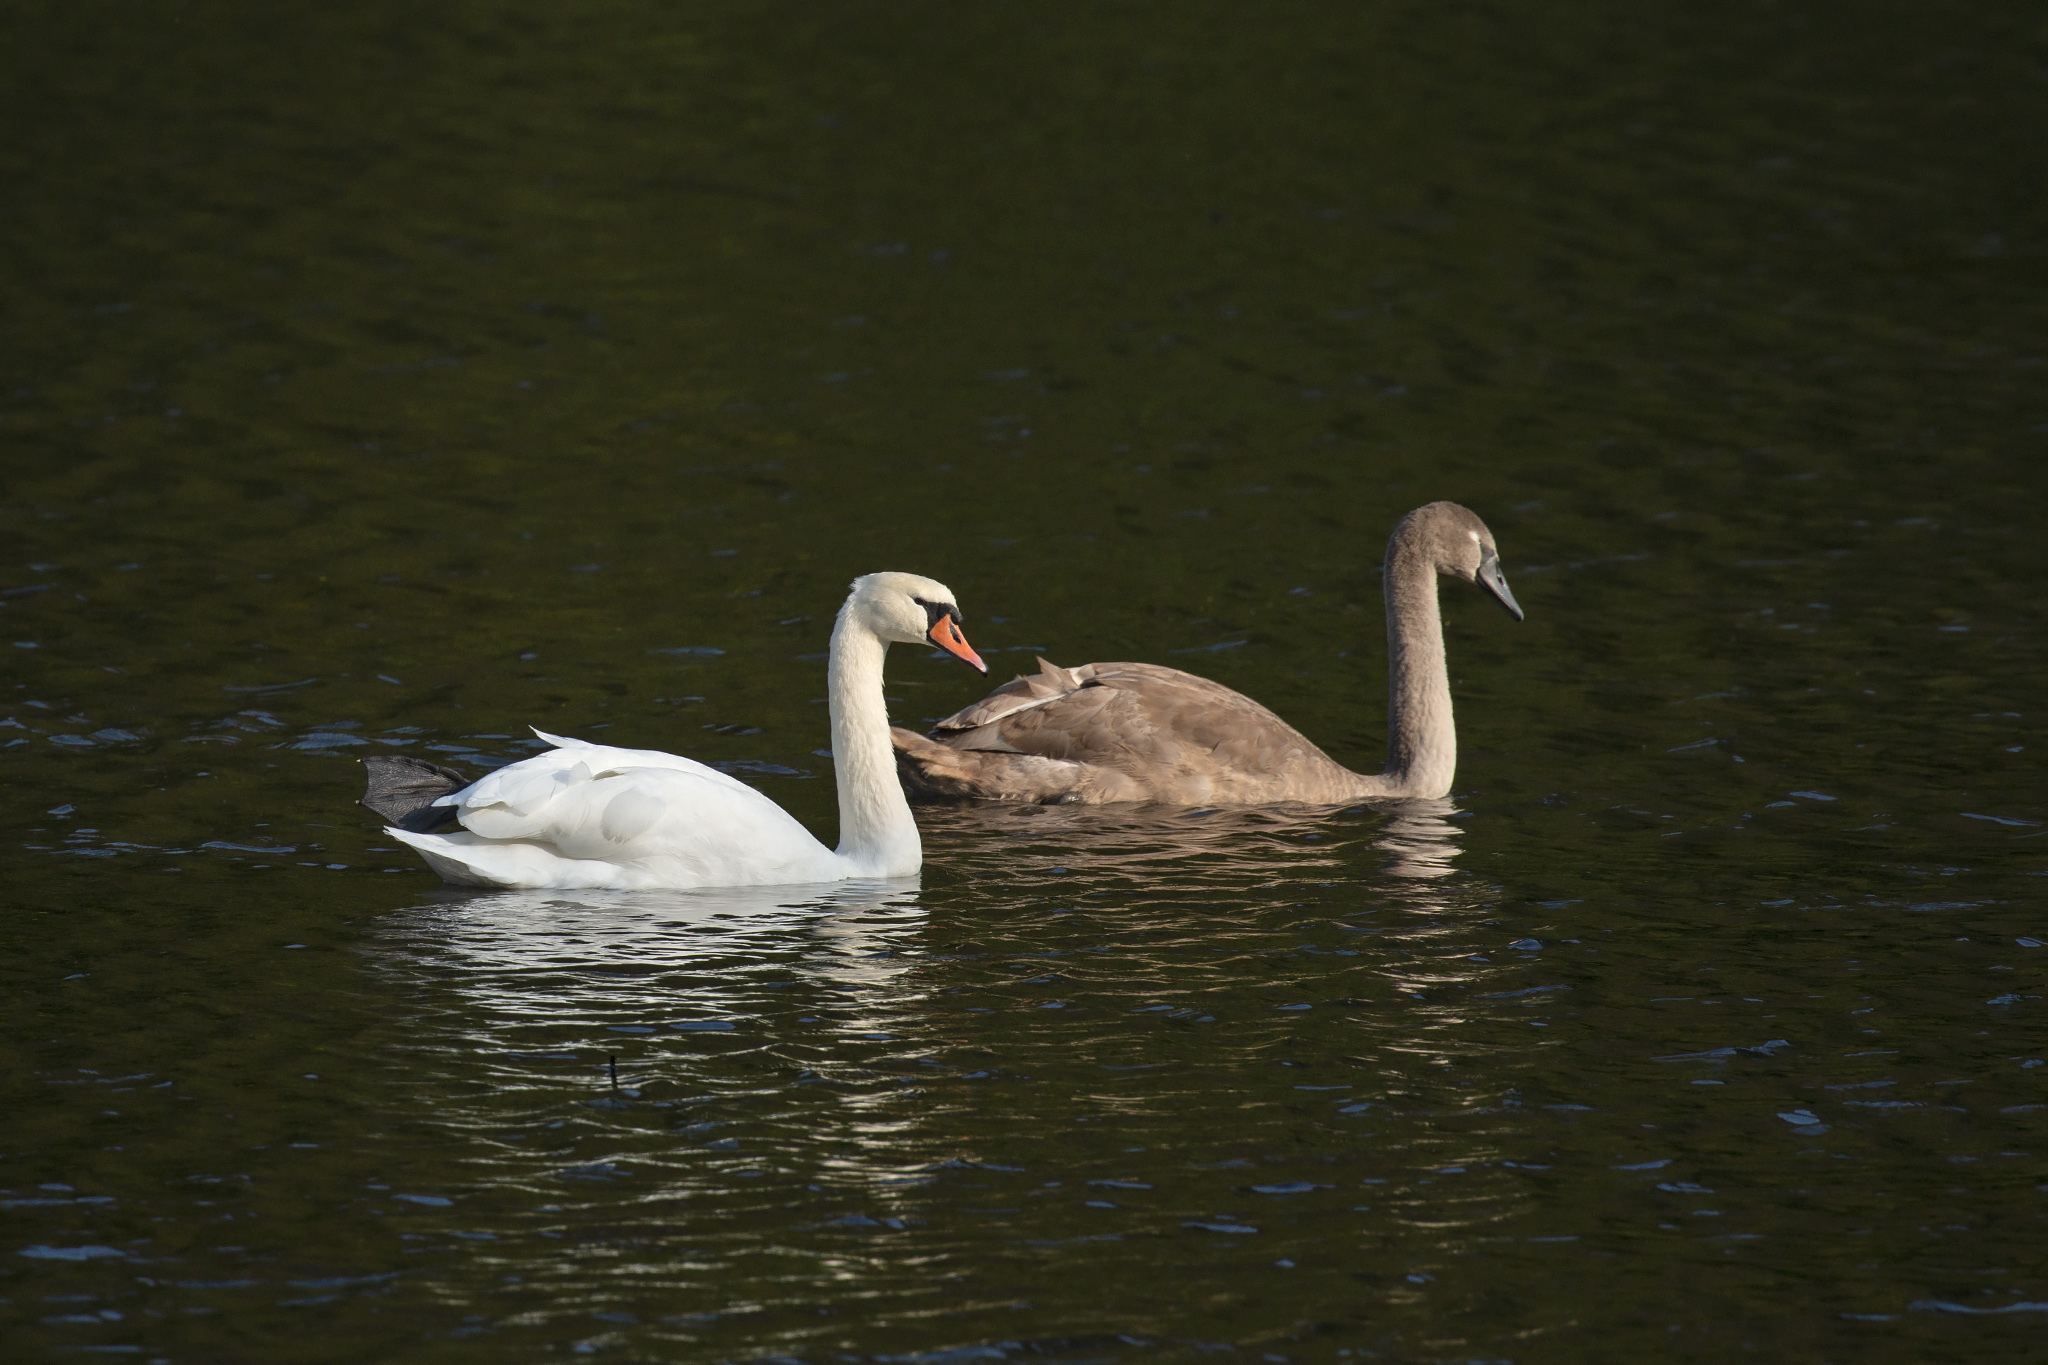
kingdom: Animalia
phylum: Chordata
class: Aves
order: Anseriformes
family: Anatidae
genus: Cygnus
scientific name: Cygnus olor
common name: Mute swan
